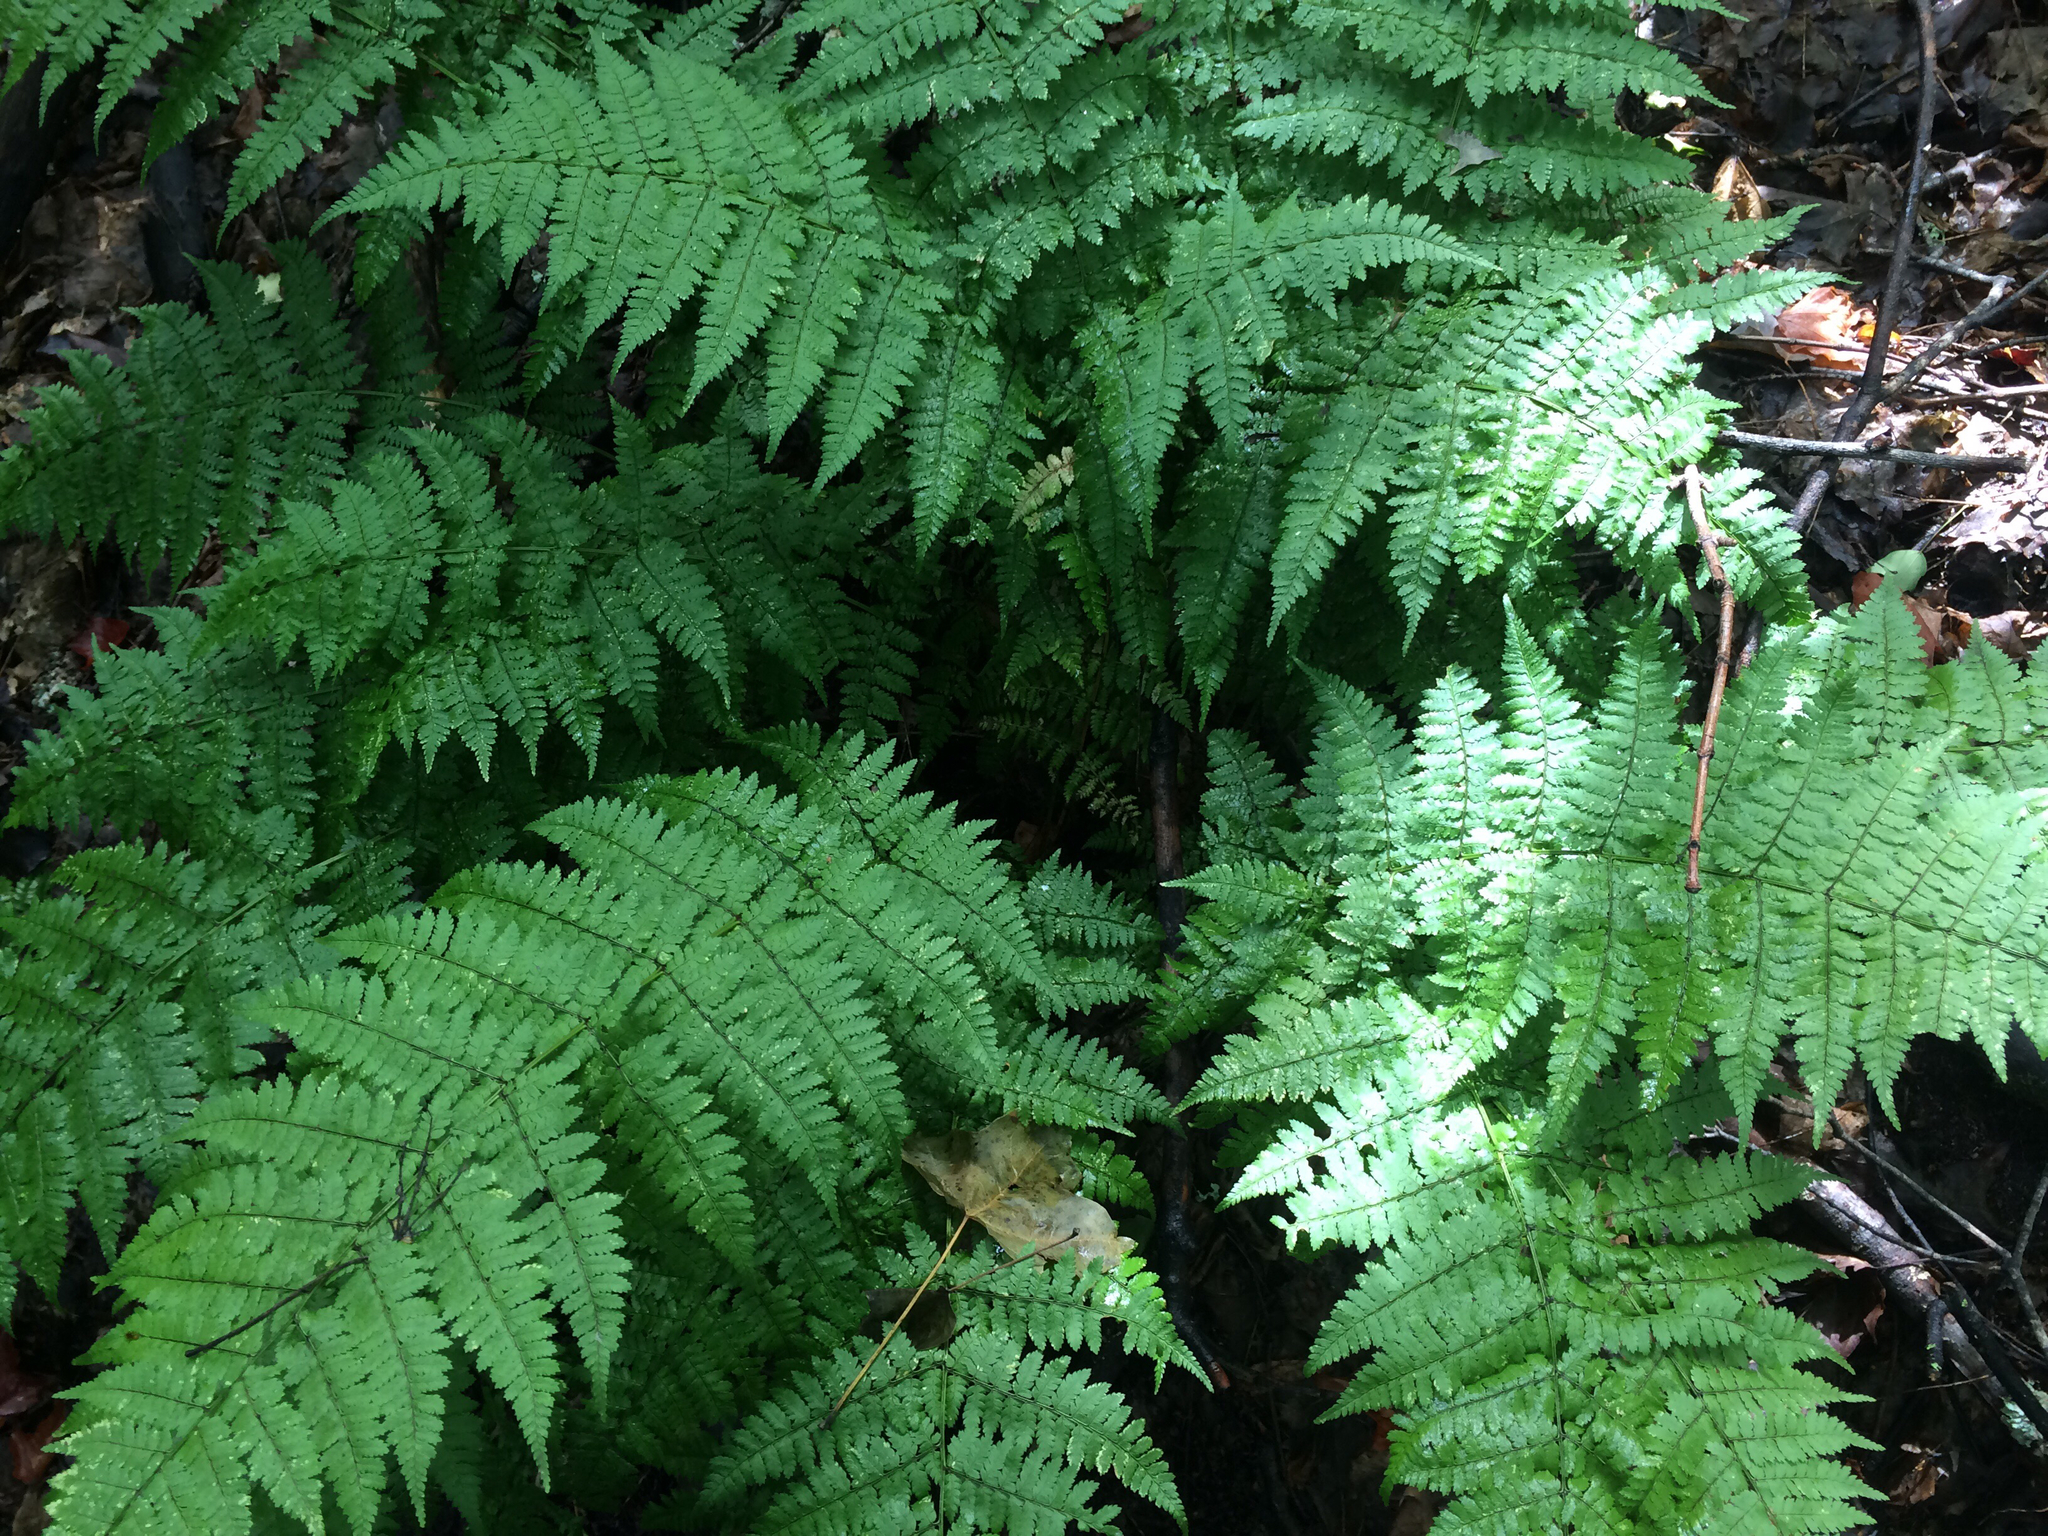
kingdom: Plantae
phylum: Tracheophyta
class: Polypodiopsida
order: Polypodiales
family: Dryopteridaceae
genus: Dryopteris
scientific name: Dryopteris intermedia
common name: Evergreen wood fern
